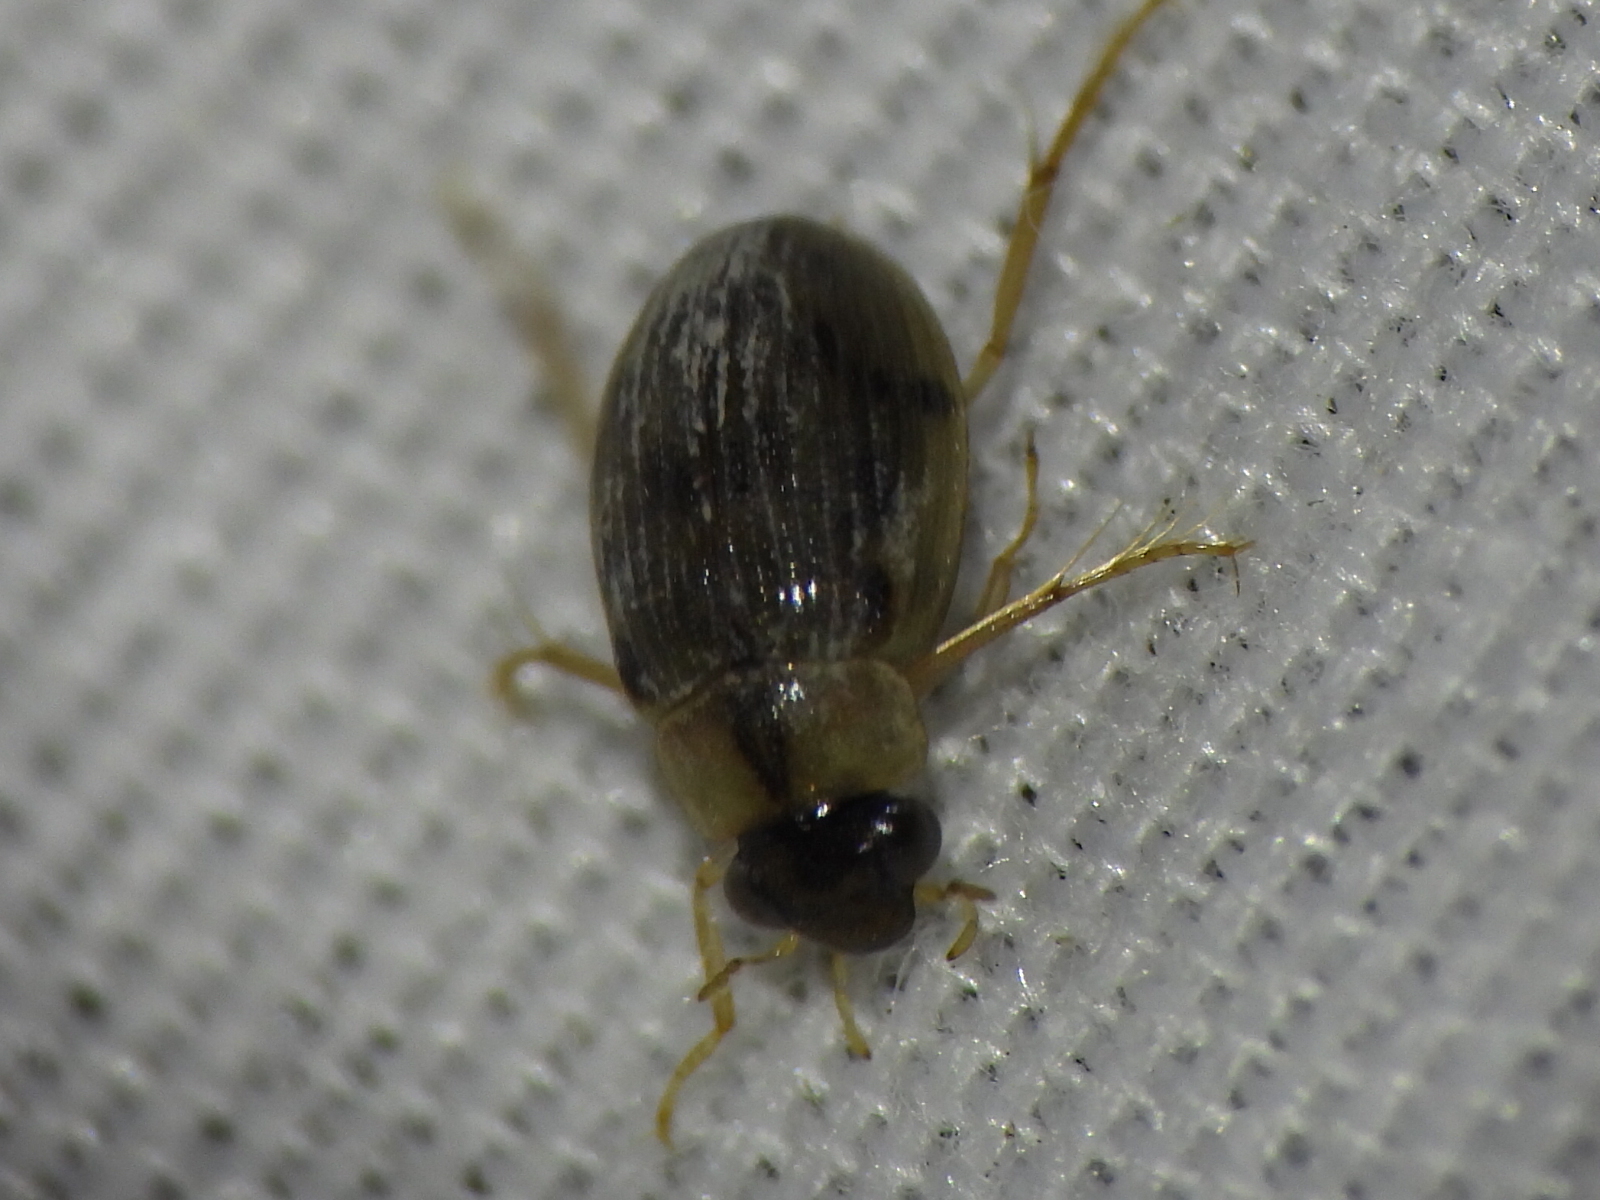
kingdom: Animalia
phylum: Arthropoda
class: Insecta
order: Coleoptera
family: Hydrophilidae
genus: Berosus
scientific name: Berosus
